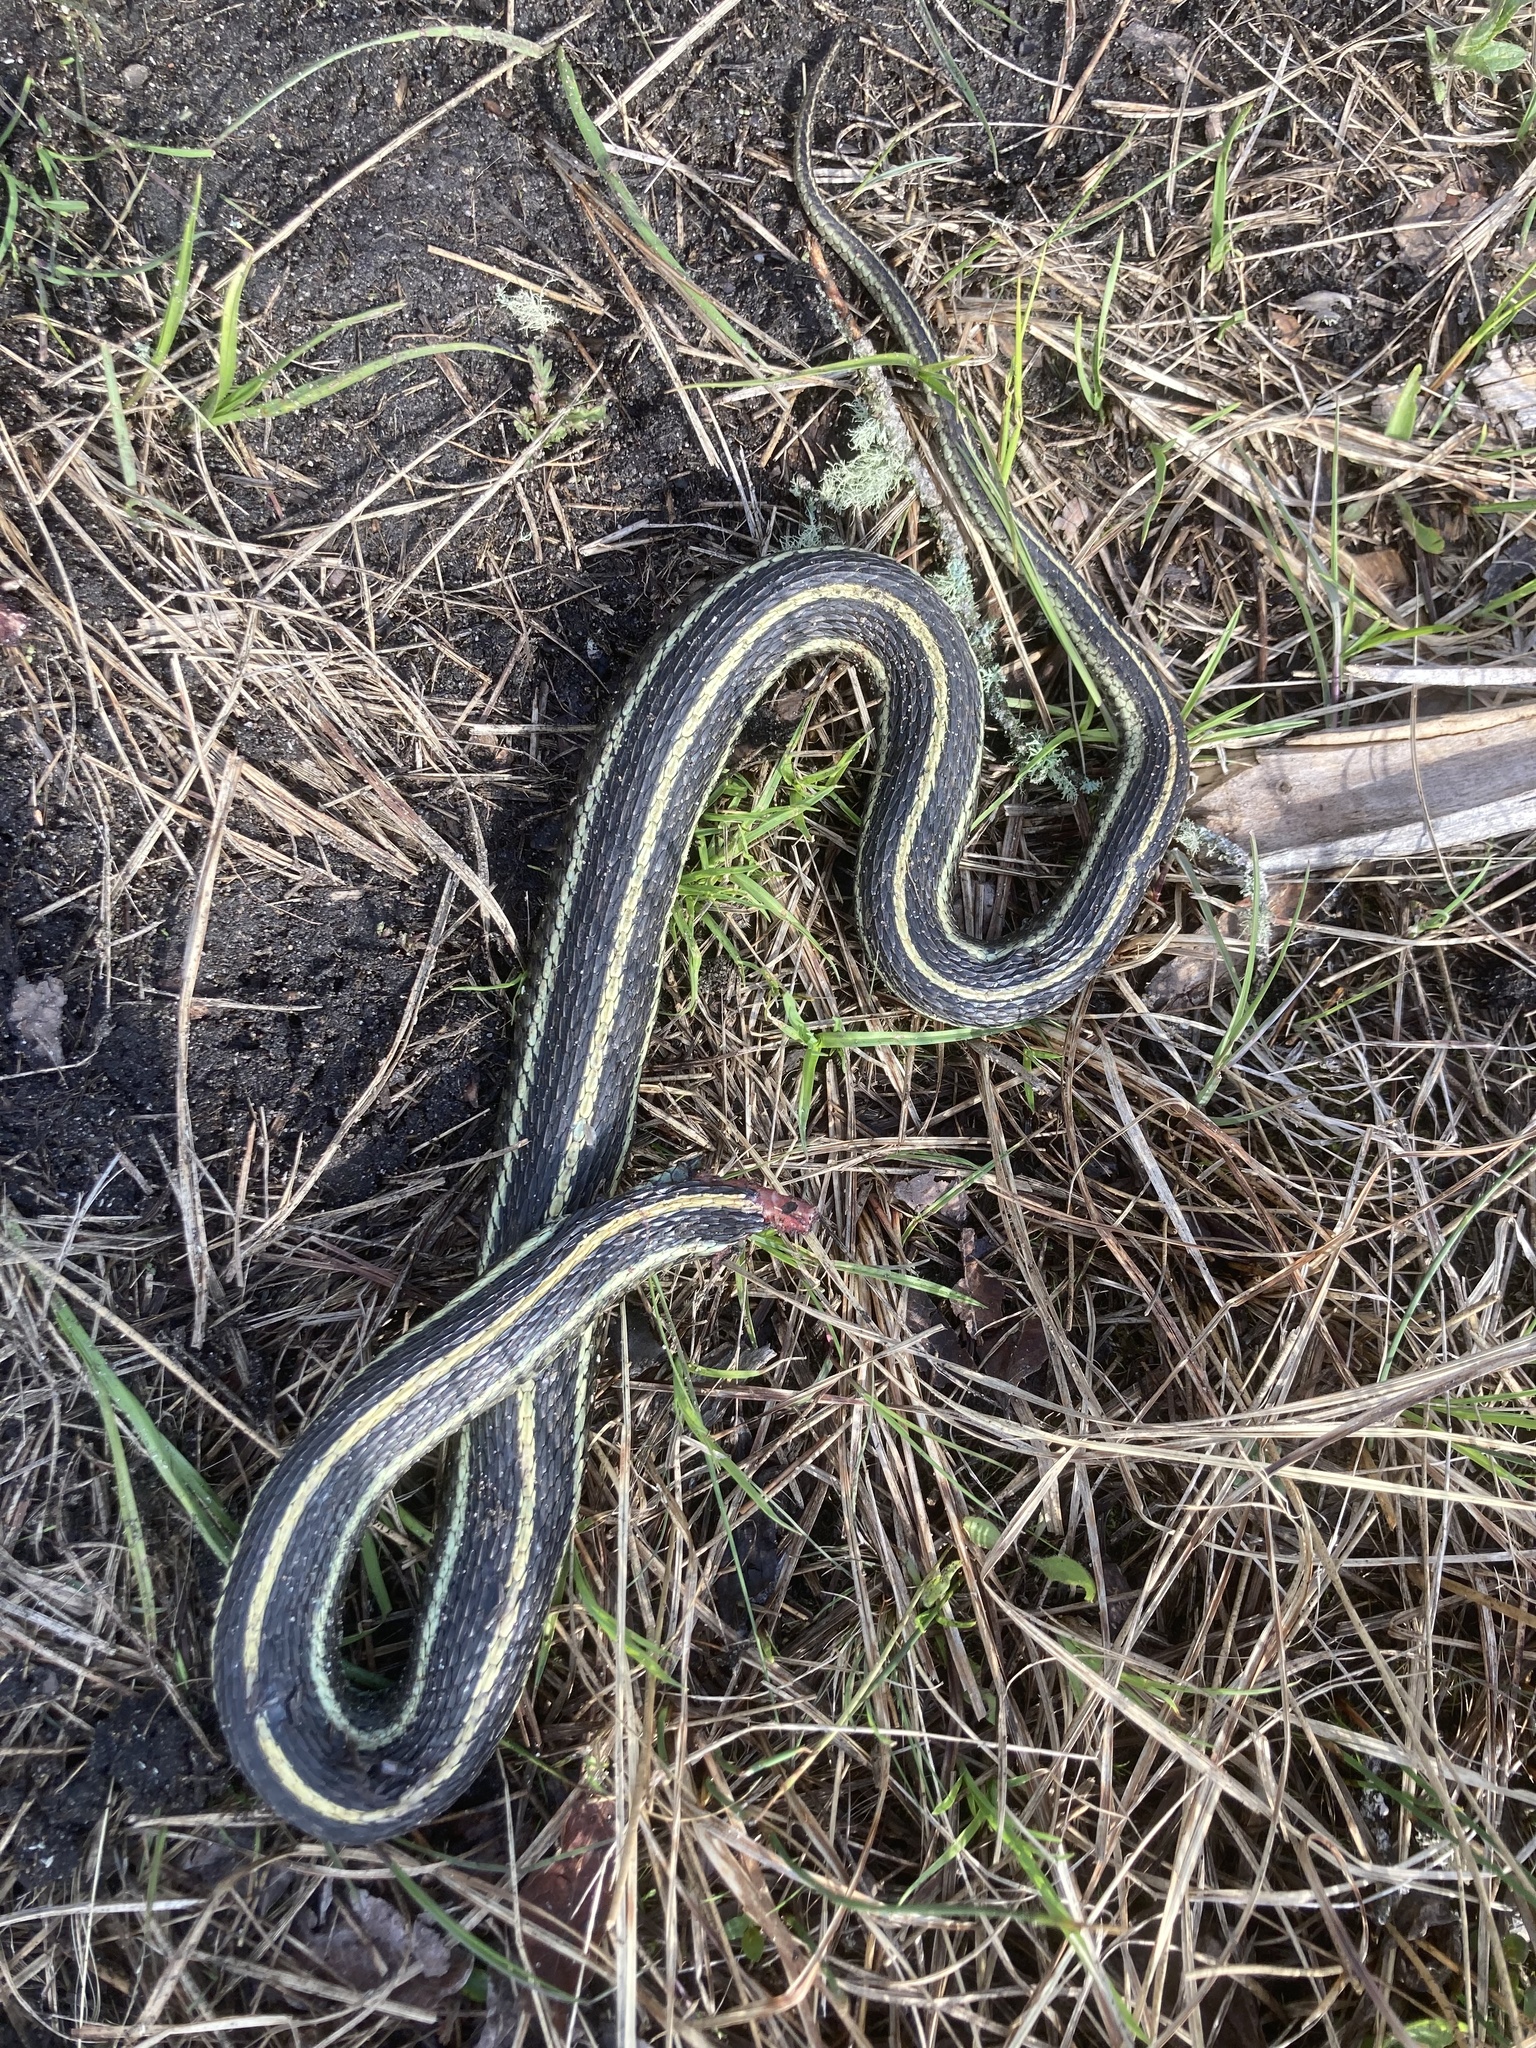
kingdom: Animalia
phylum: Chordata
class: Squamata
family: Colubridae
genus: Thamnophis
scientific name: Thamnophis radix
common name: Plains garter snake
